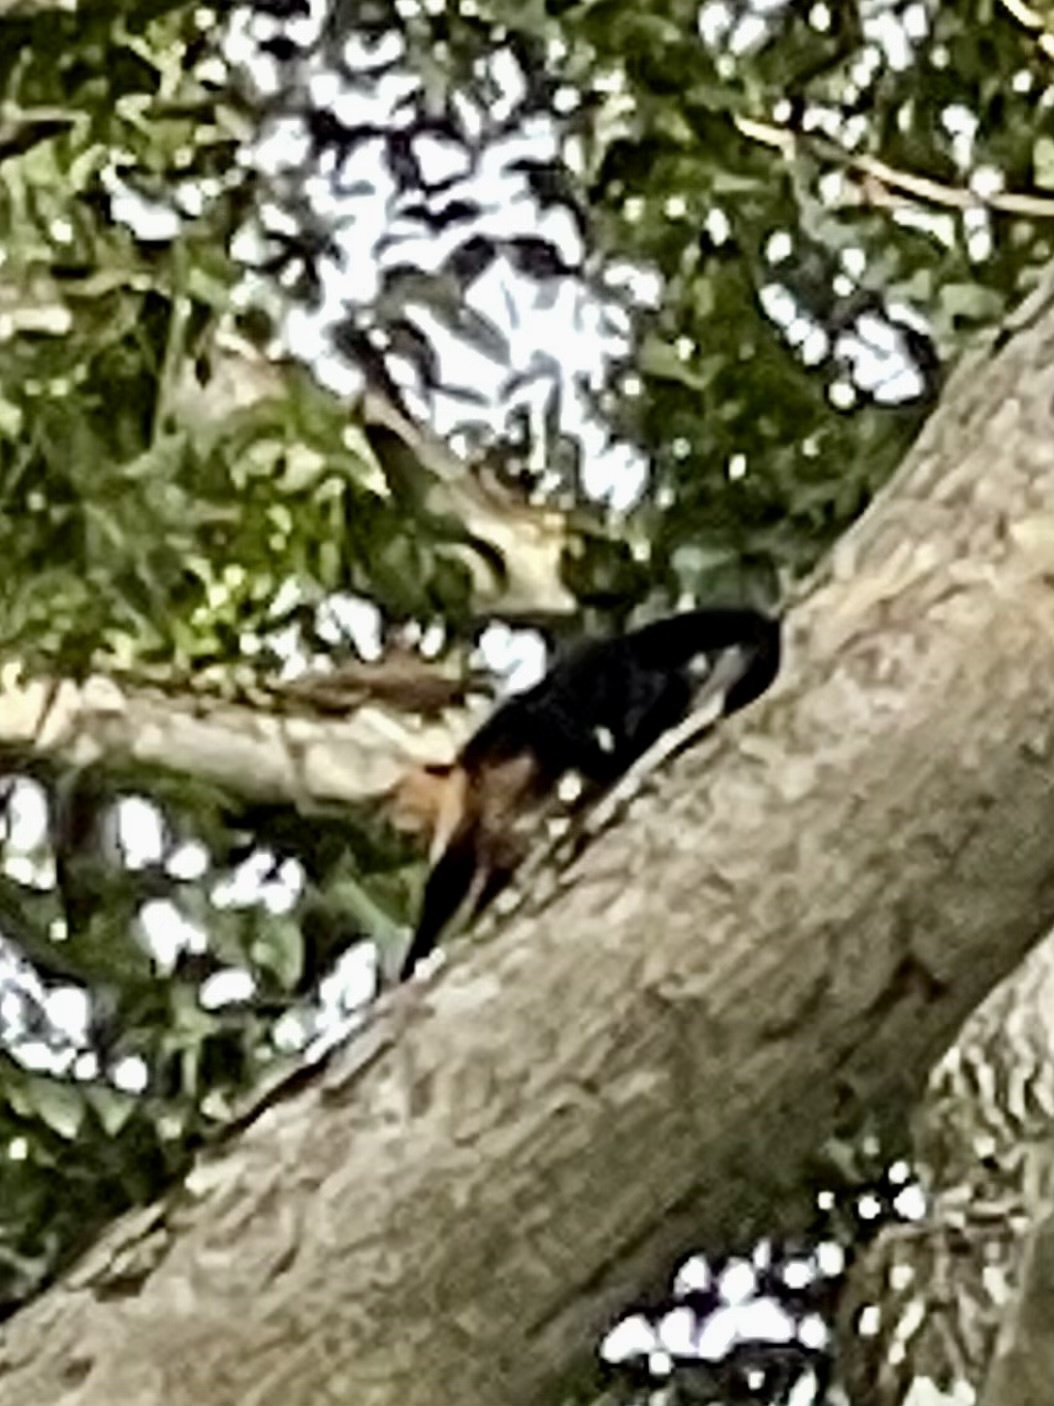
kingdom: Animalia
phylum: Chordata
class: Mammalia
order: Primates
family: Cebidae
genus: Cebus
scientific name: Cebus imitator
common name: Panamanian white-faced capuchin
